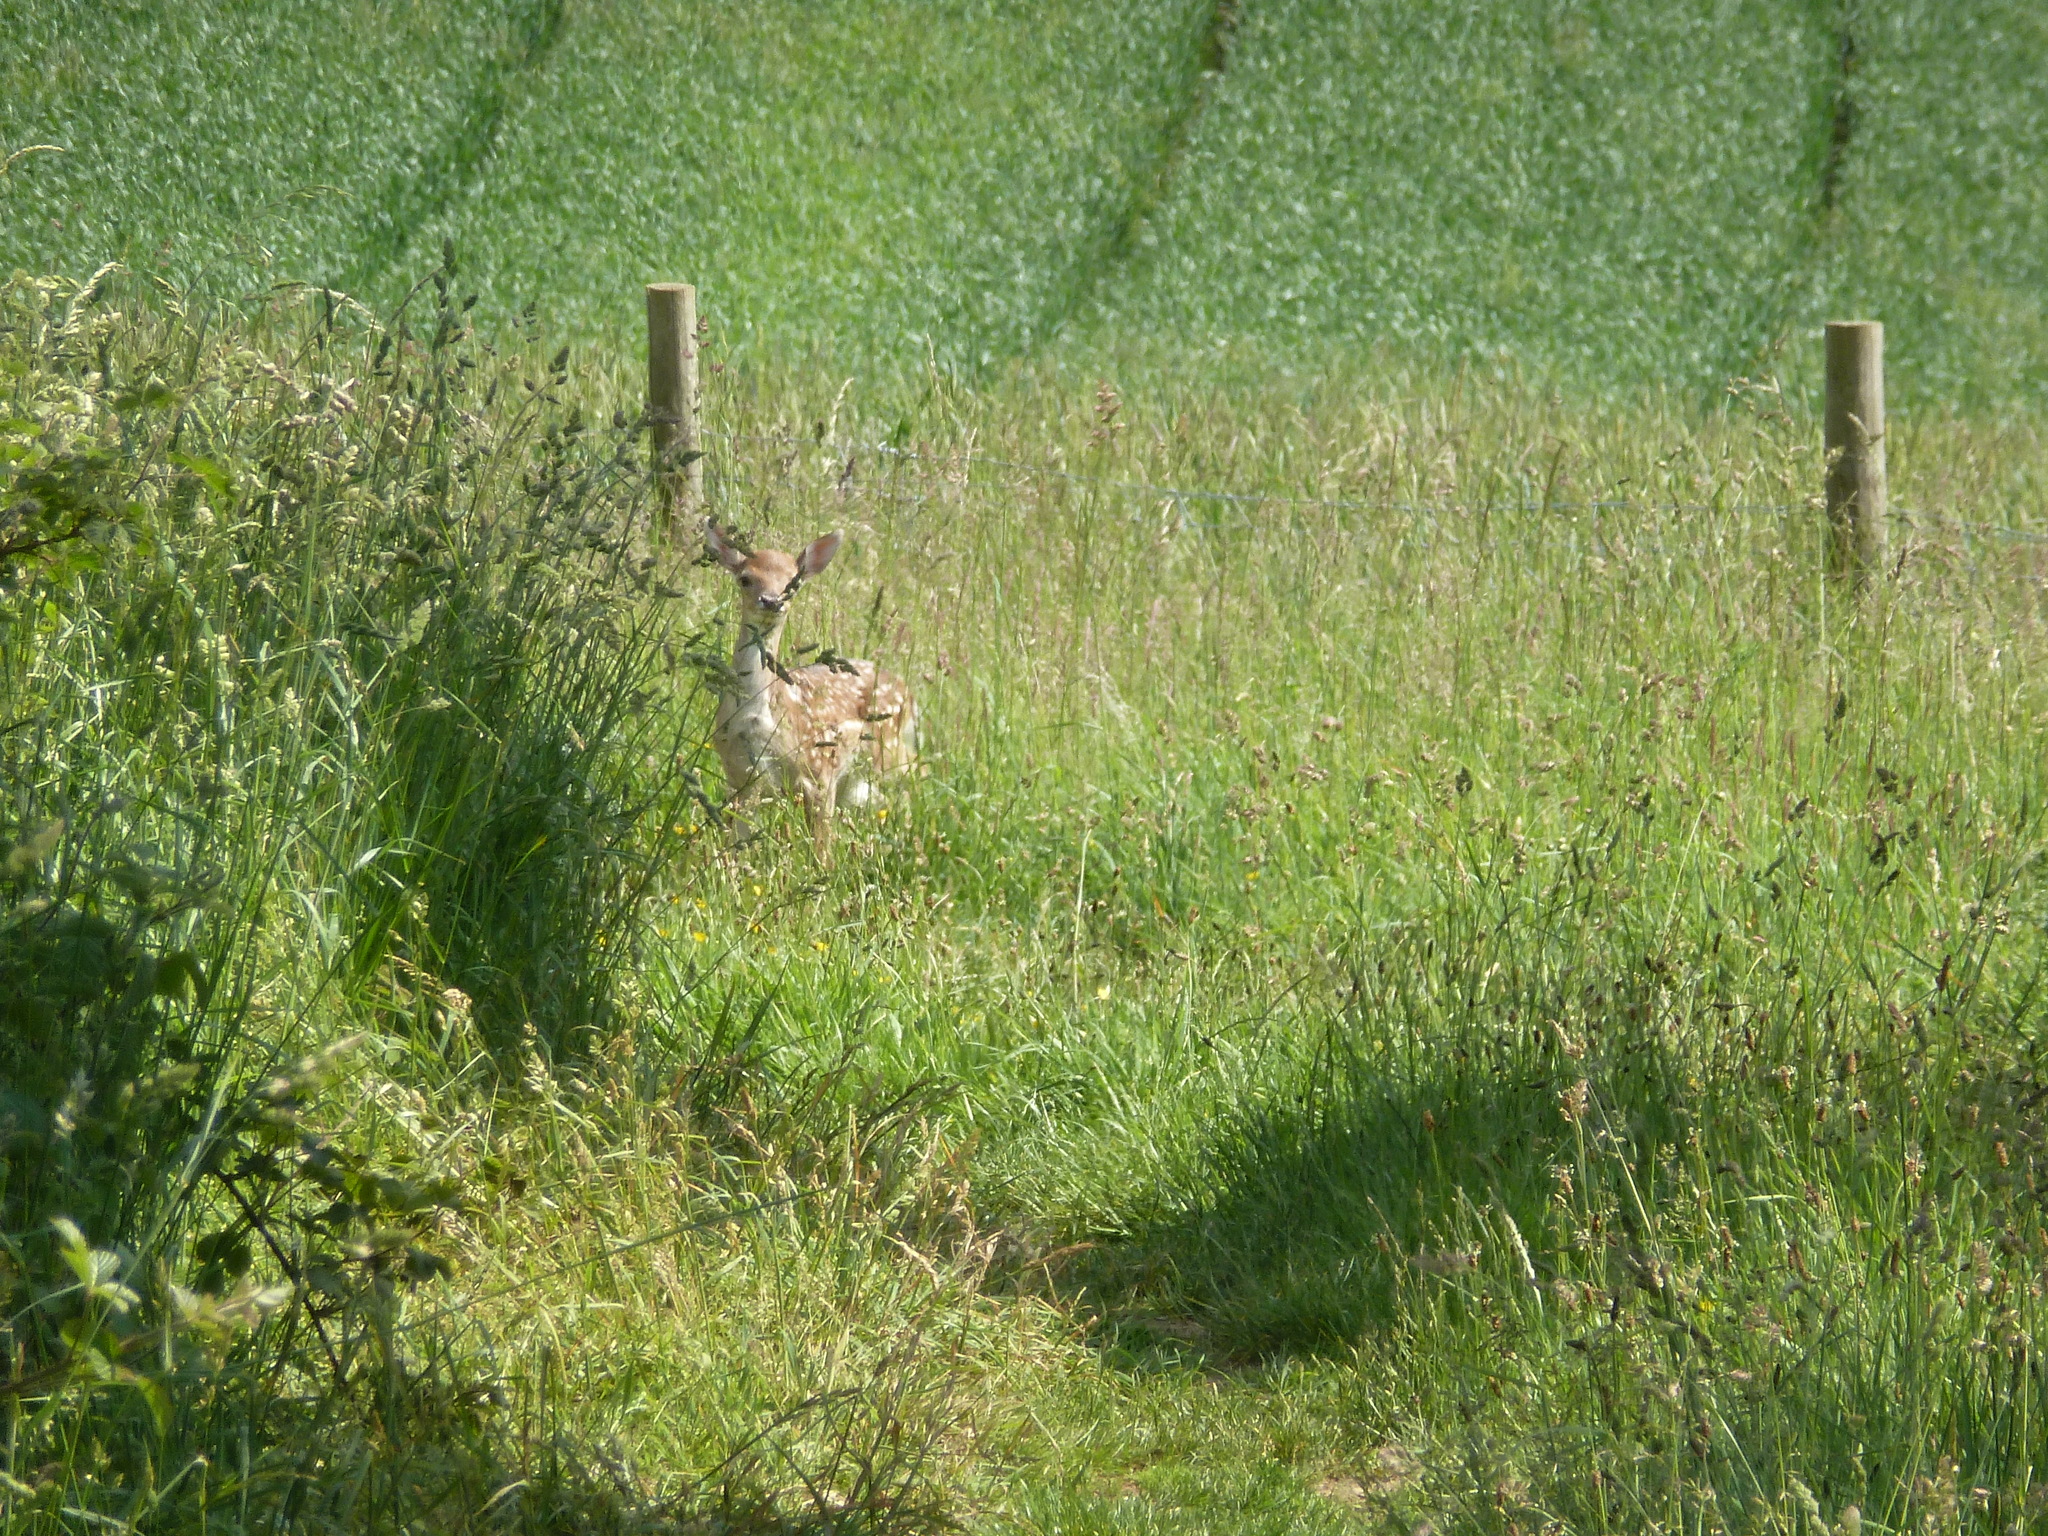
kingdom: Animalia
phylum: Chordata
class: Mammalia
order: Artiodactyla
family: Cervidae
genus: Dama
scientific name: Dama dama
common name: Fallow deer
